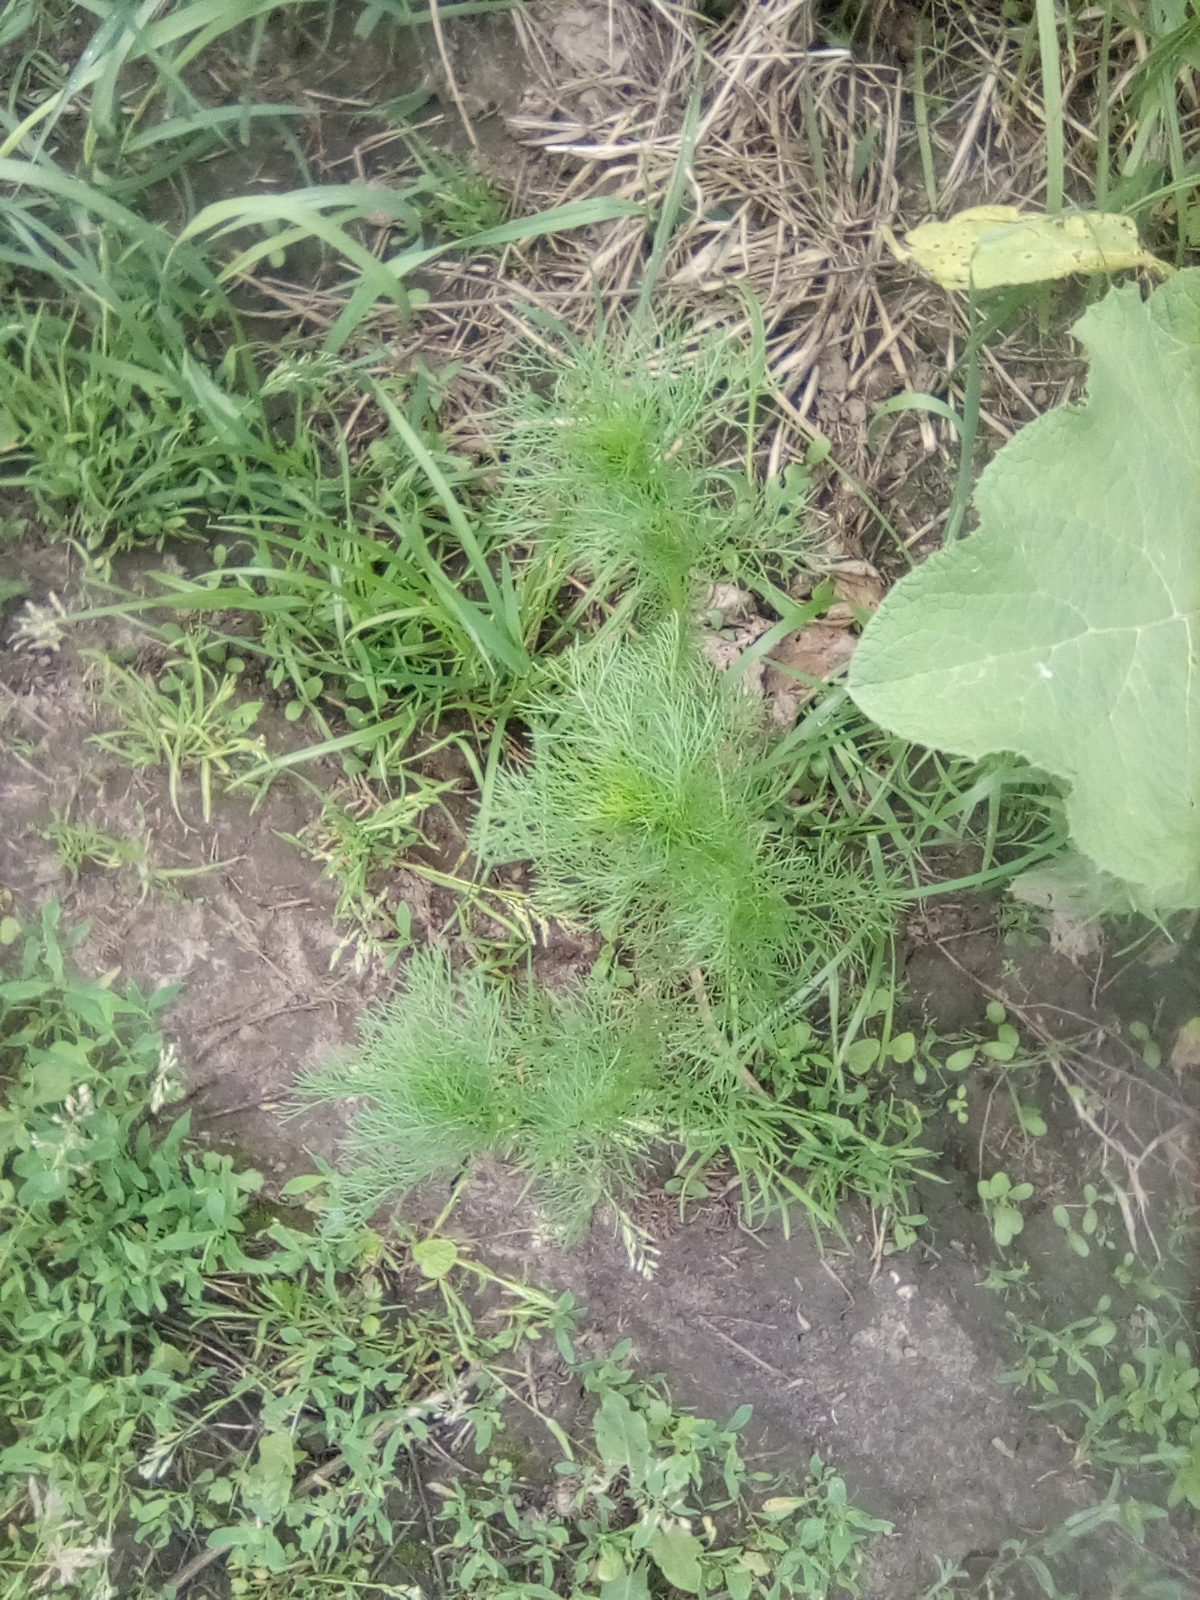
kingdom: Plantae
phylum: Tracheophyta
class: Magnoliopsida
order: Asterales
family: Asteraceae
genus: Tripleurospermum
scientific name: Tripleurospermum inodorum
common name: Scentless mayweed
